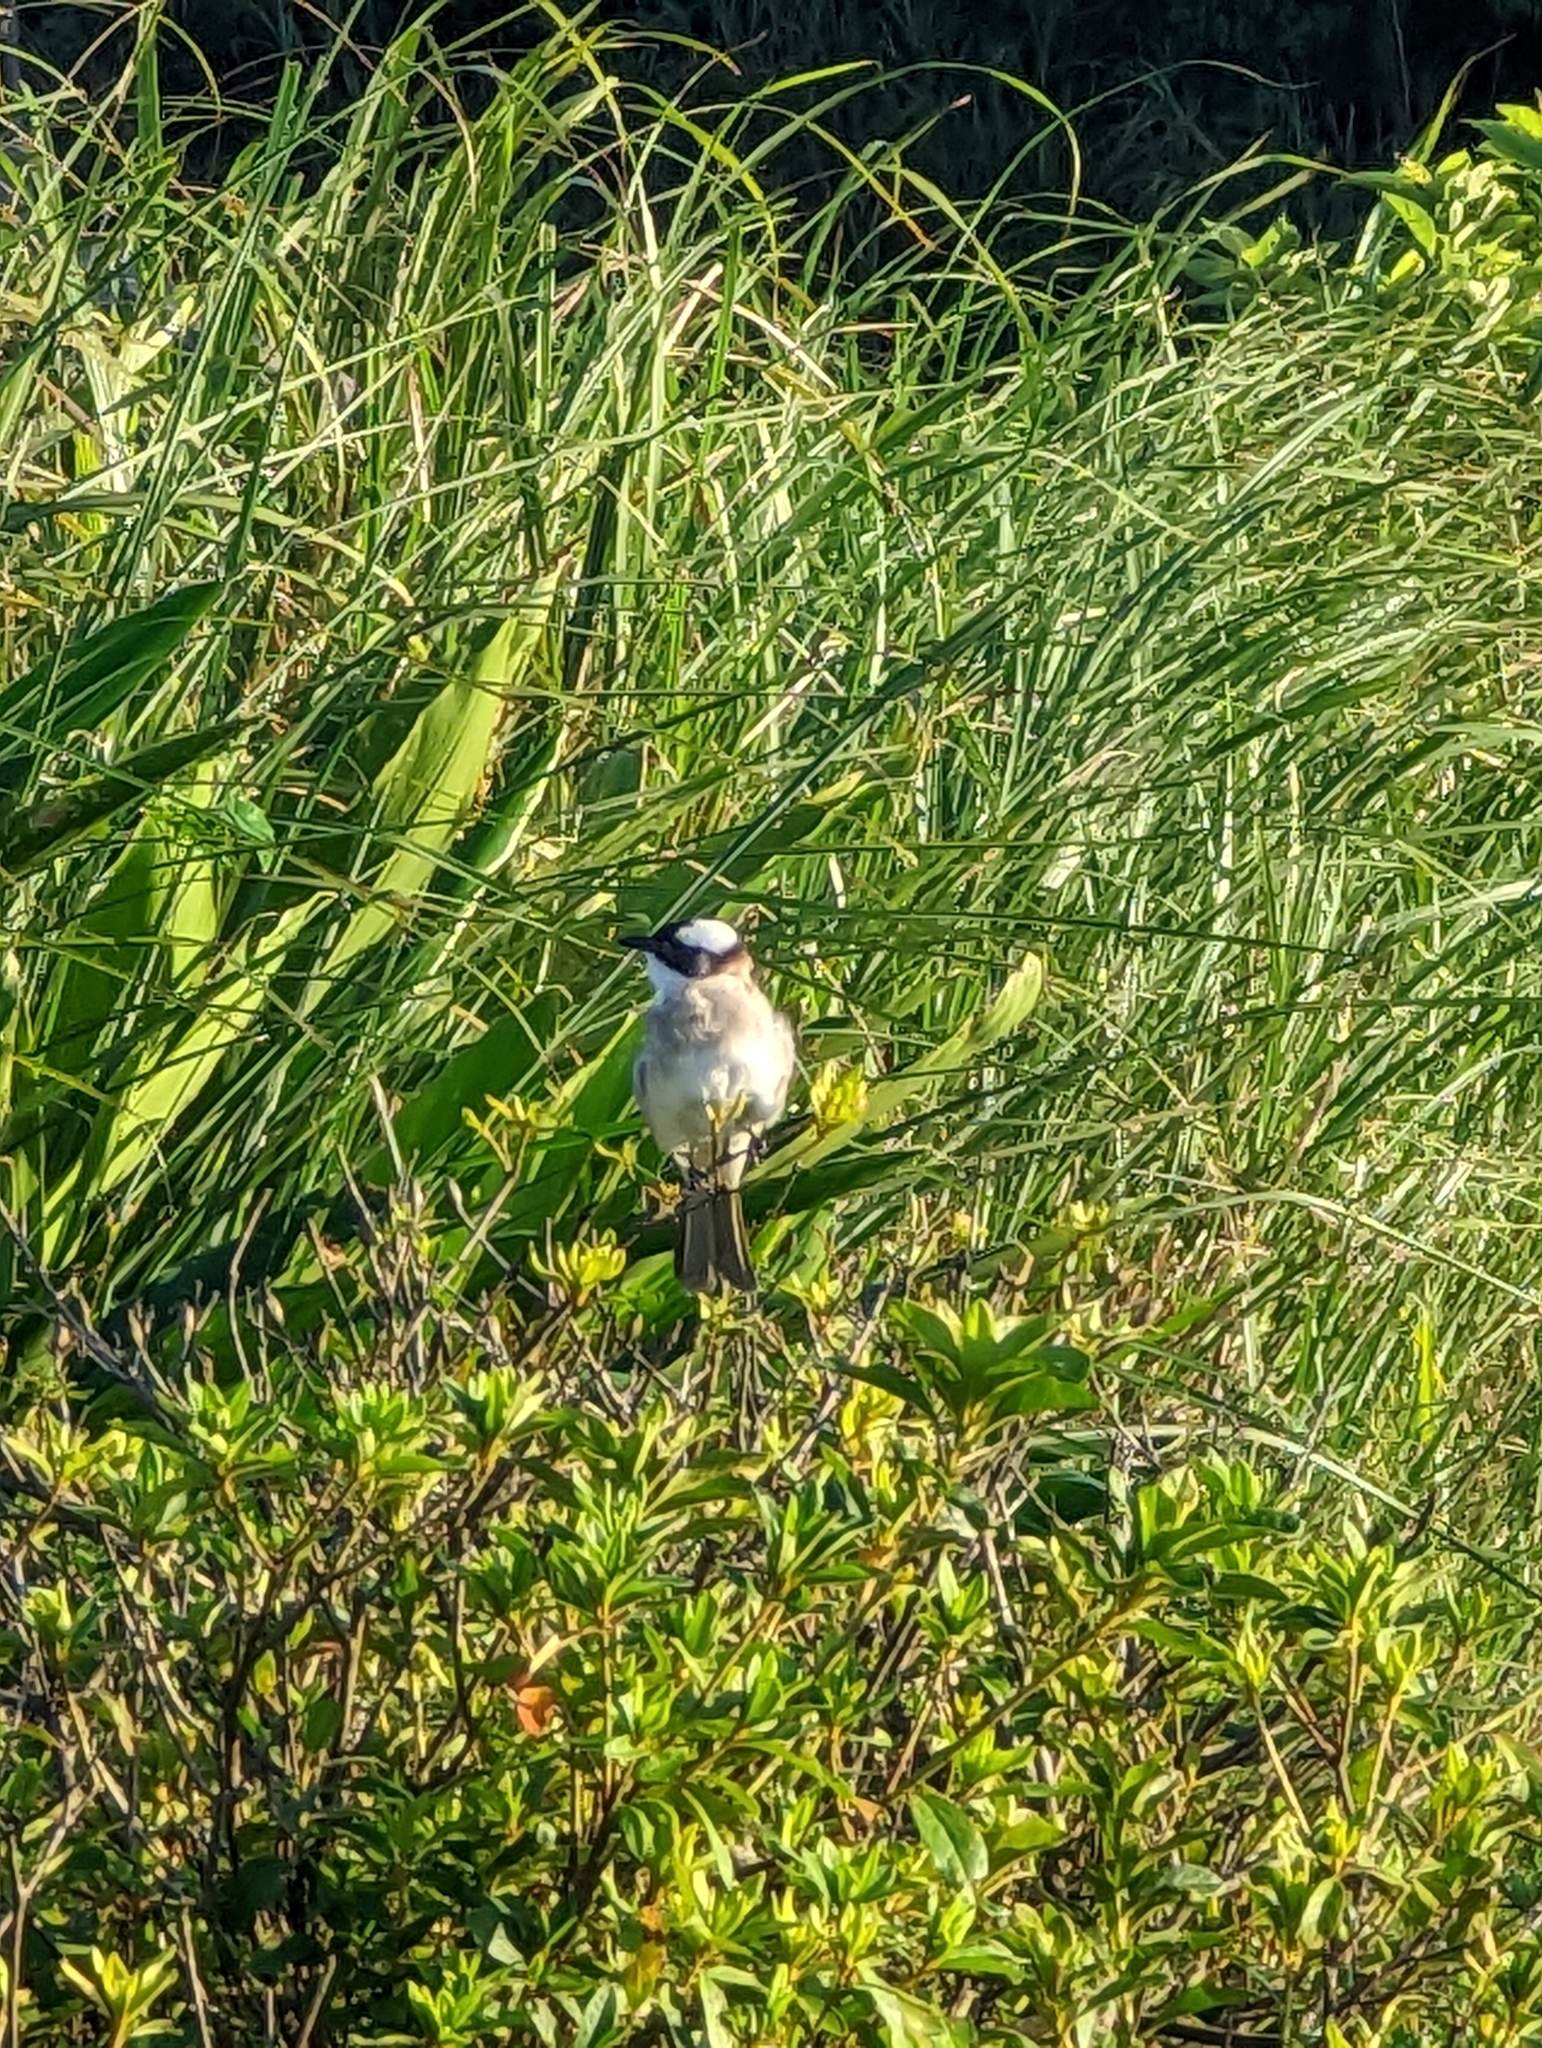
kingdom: Animalia
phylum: Chordata
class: Aves
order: Passeriformes
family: Pycnonotidae
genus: Pycnonotus
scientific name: Pycnonotus sinensis
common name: Light-vented bulbul
